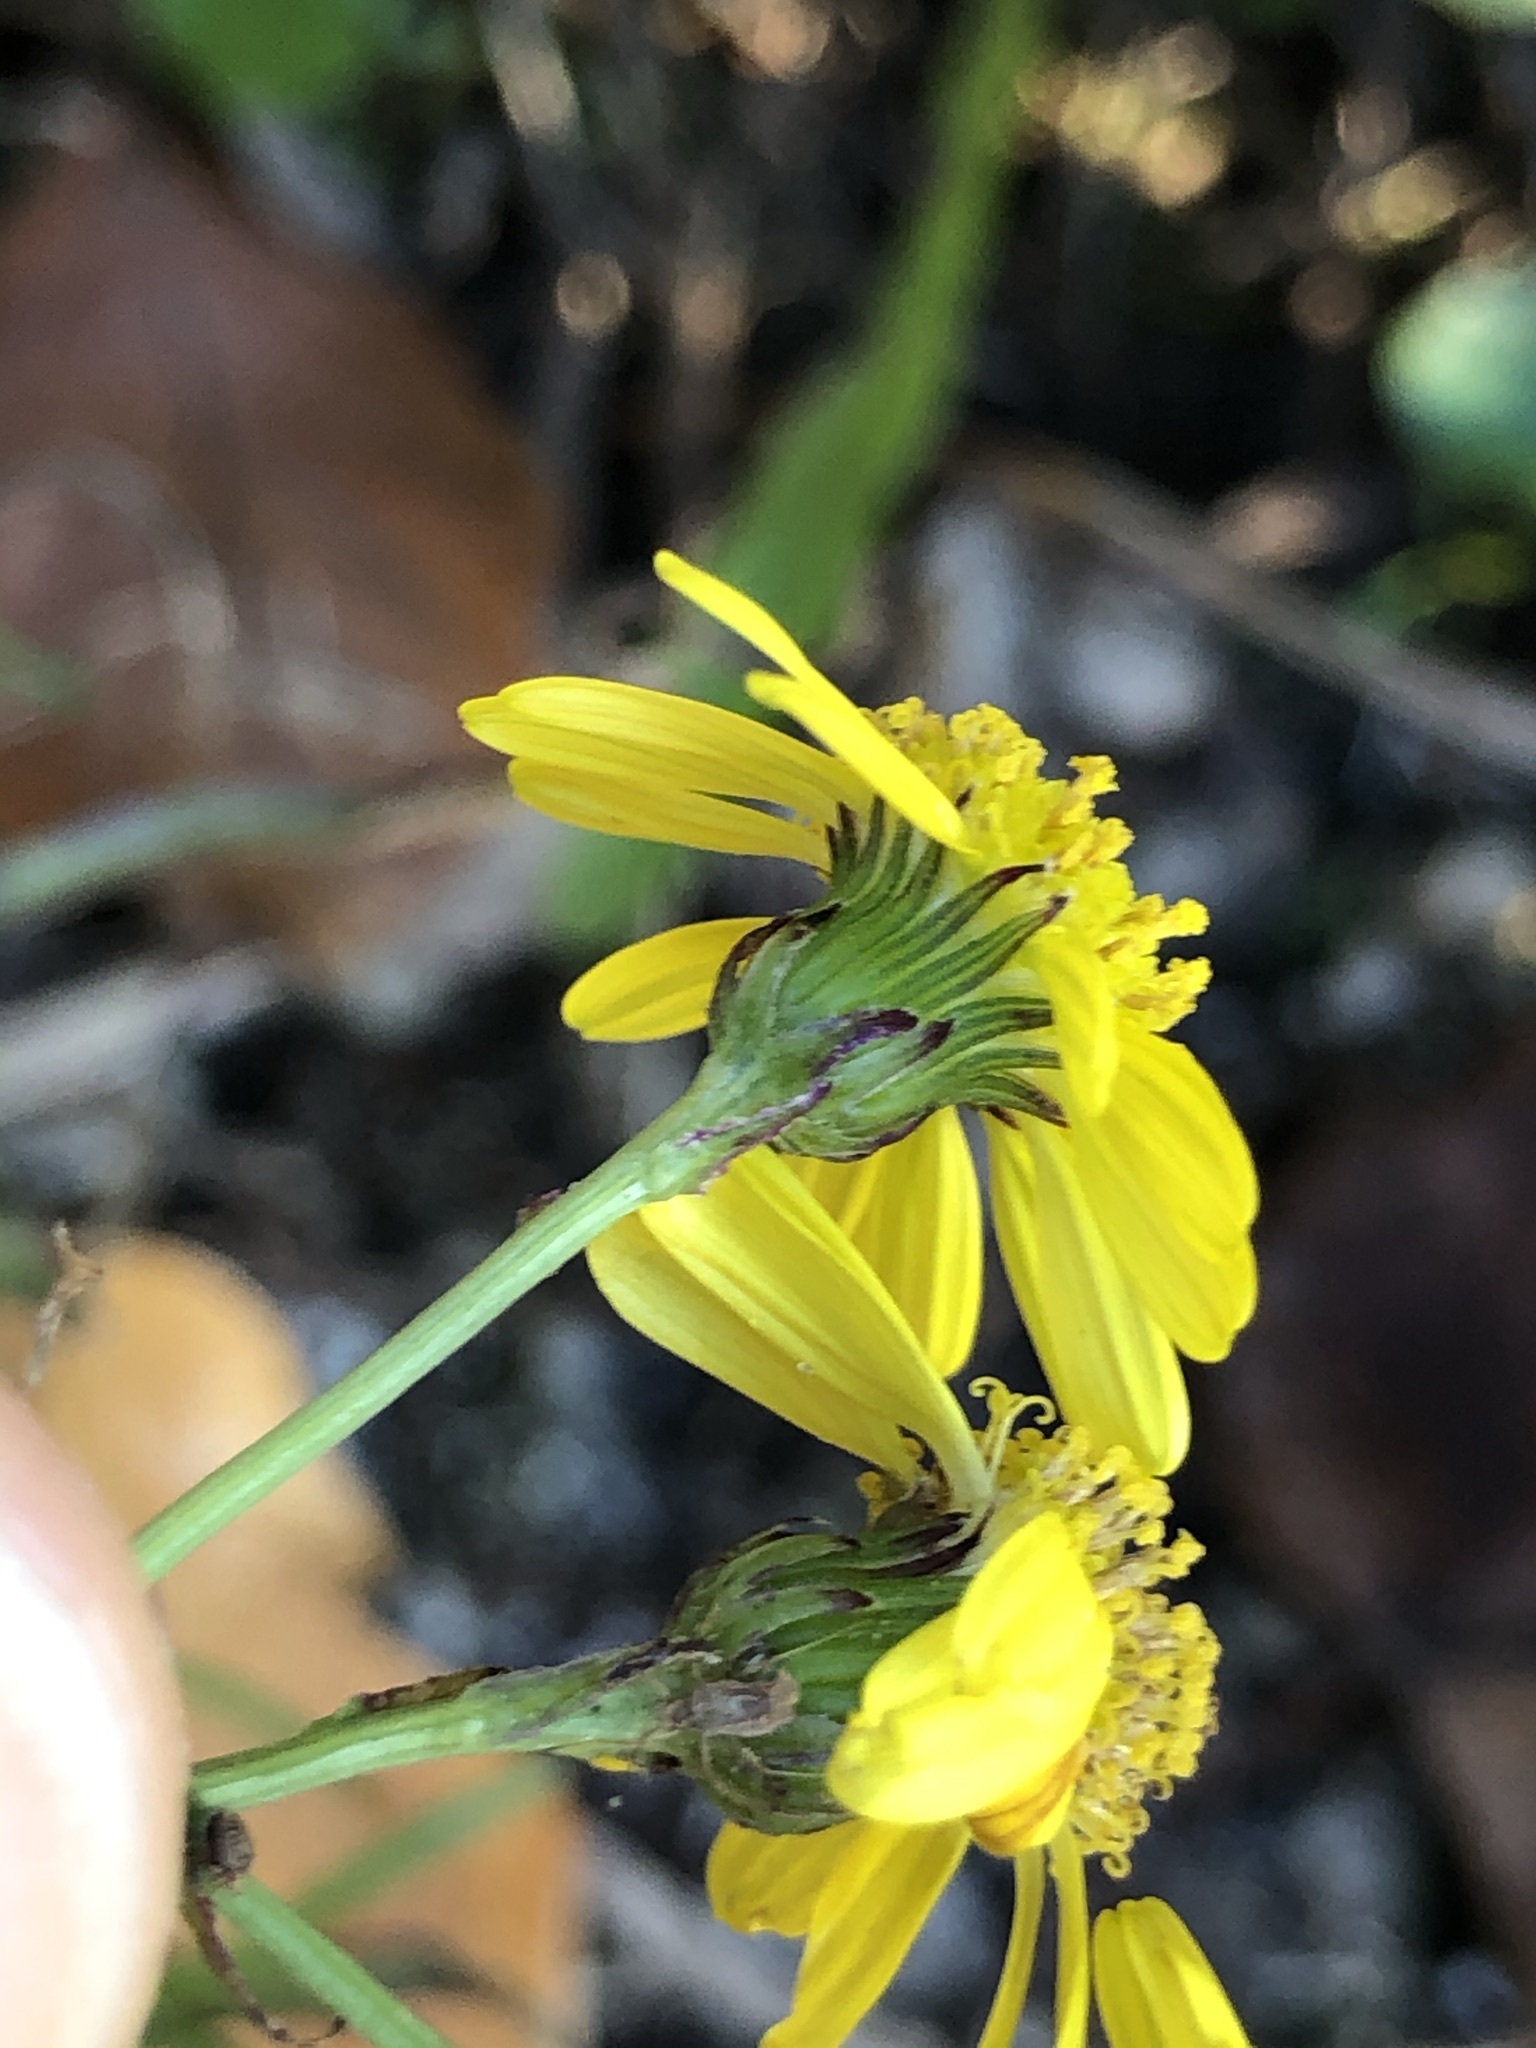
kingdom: Plantae
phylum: Tracheophyta
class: Magnoliopsida
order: Asterales
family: Asteraceae
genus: Senecio
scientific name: Senecio inaequidens
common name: Narrow-leaved ragwort
